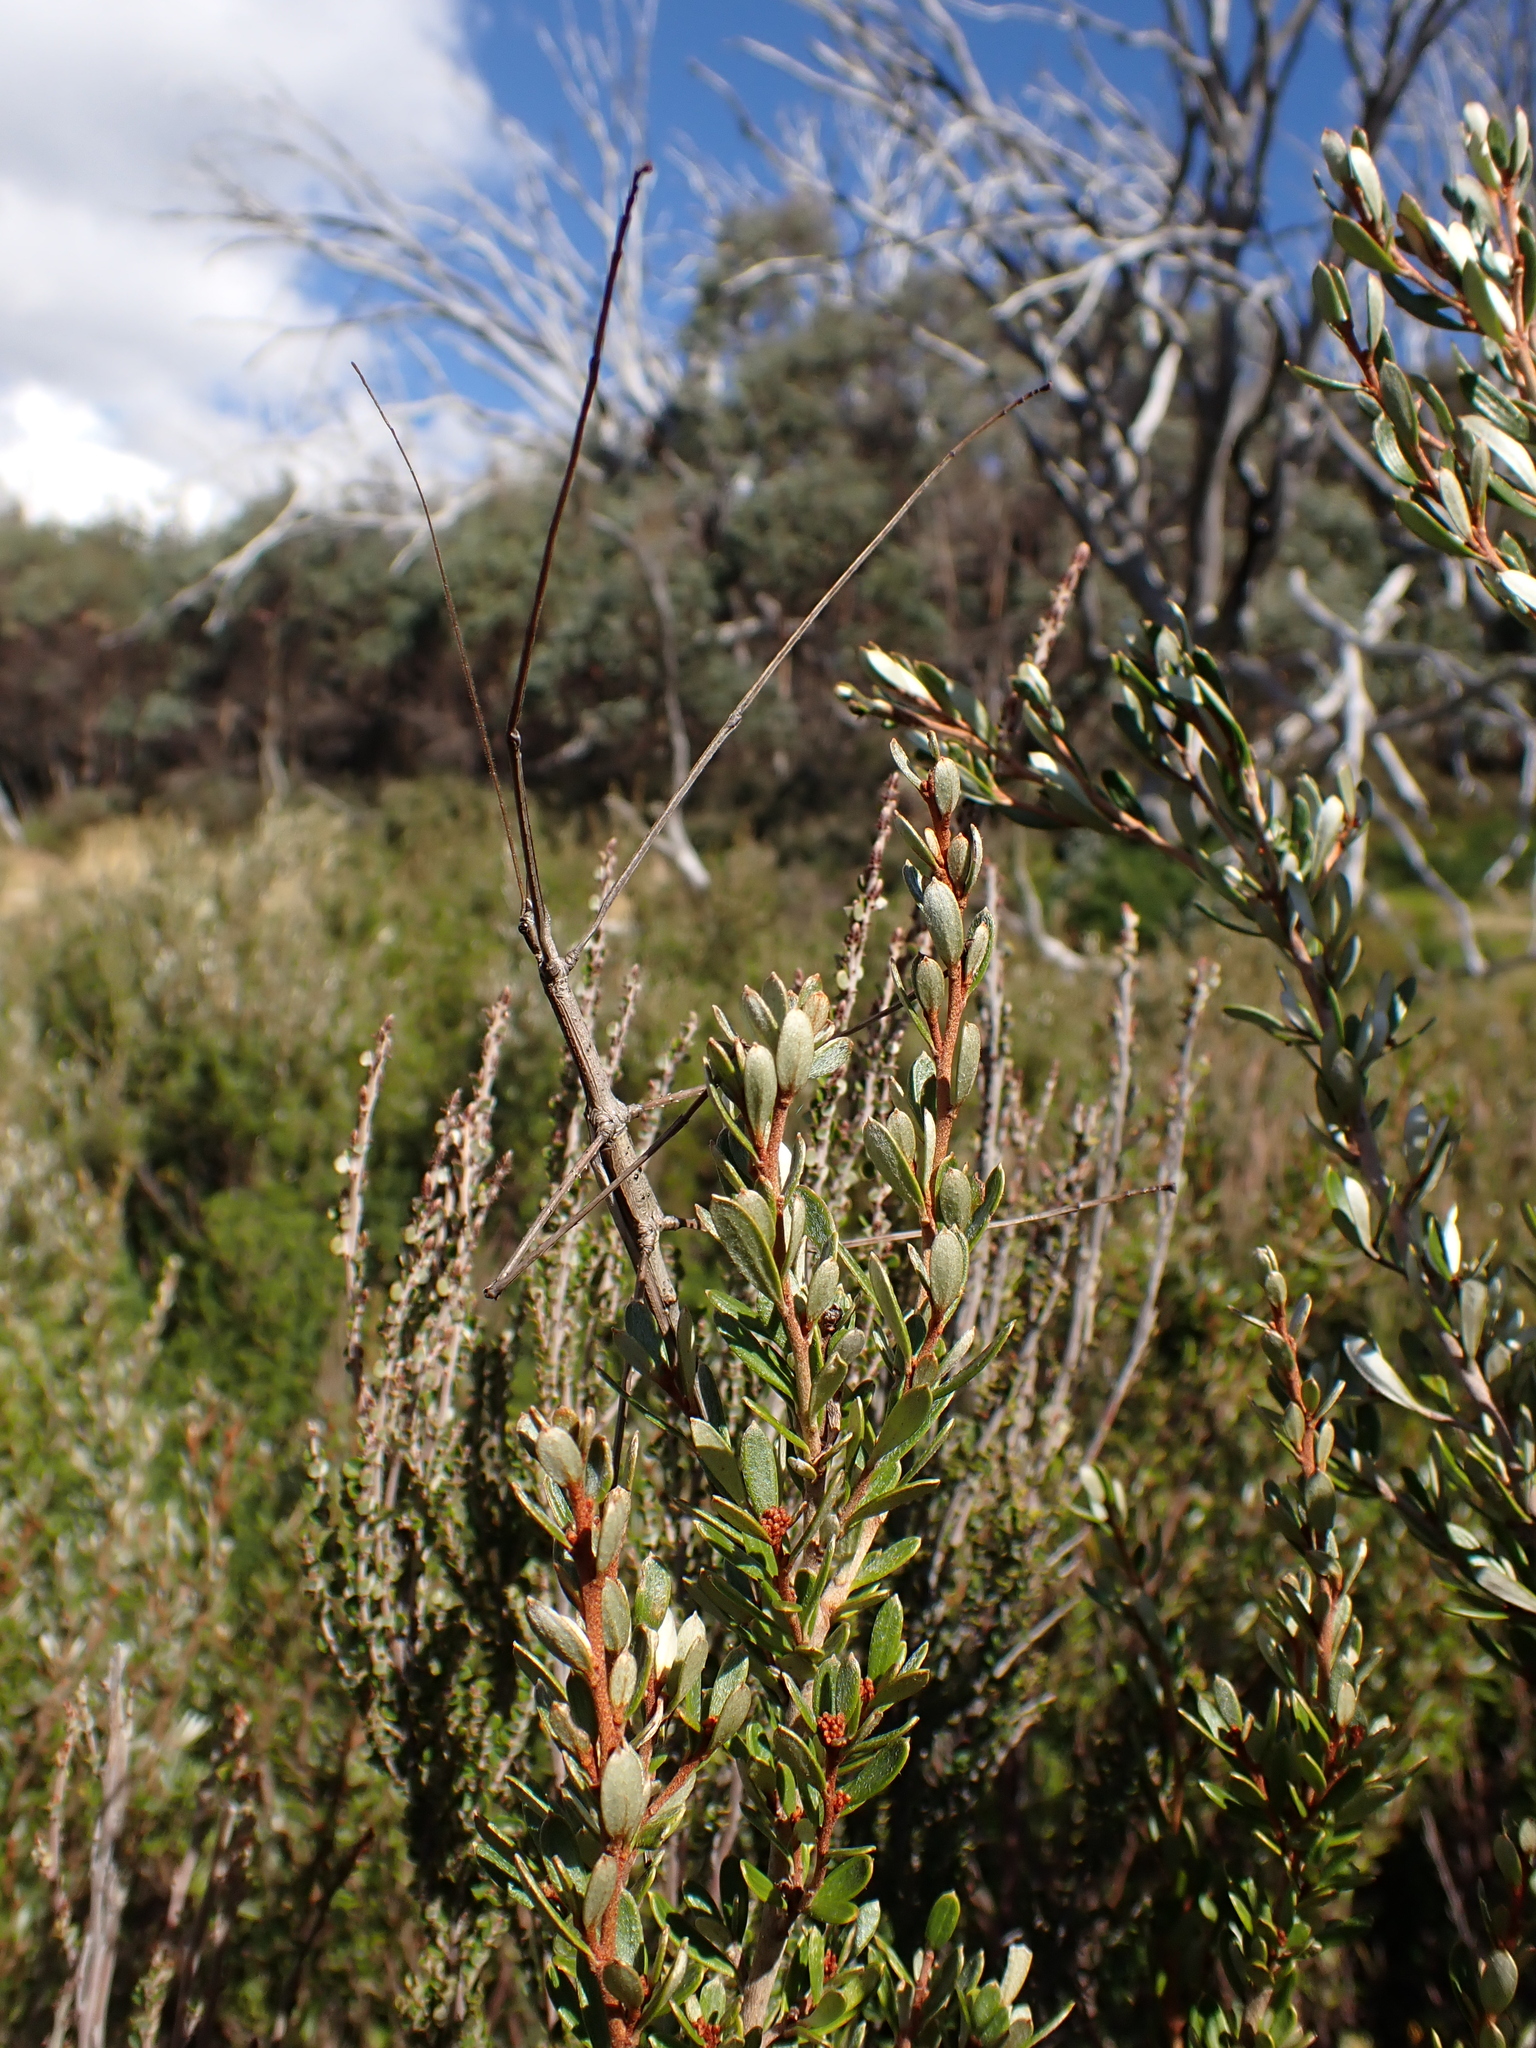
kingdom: Animalia
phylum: Arthropoda
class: Insecta
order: Phasmida
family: Phasmatidae
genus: Ctenomorpha
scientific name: Ctenomorpha marginipennis
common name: Margined-winged stick-insect
